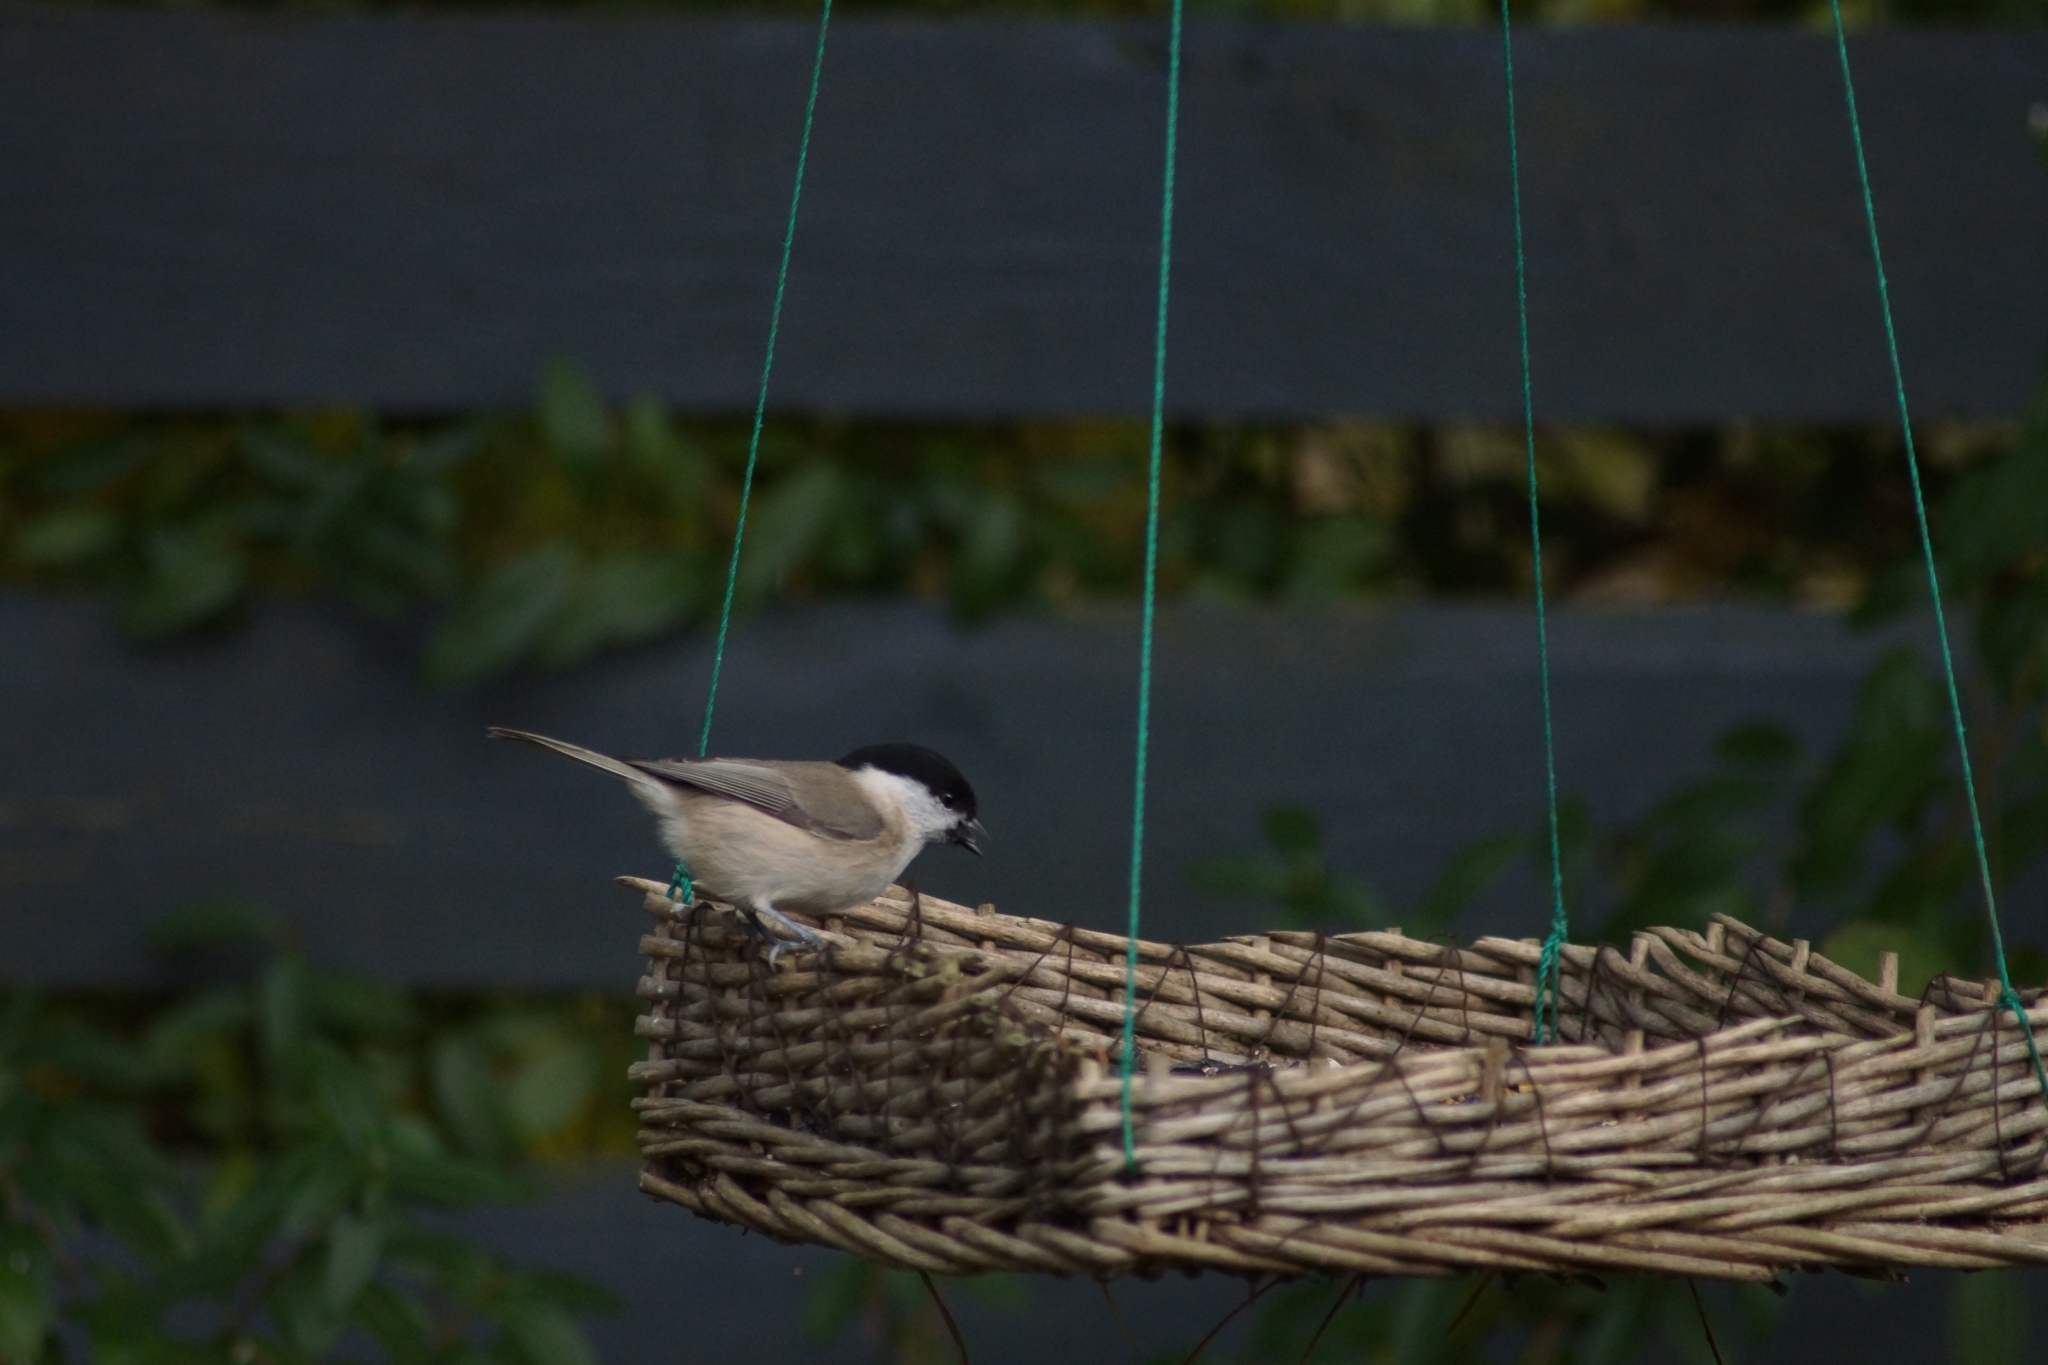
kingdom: Animalia
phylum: Chordata
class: Aves
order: Passeriformes
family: Paridae
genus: Poecile
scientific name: Poecile palustris
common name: Marsh tit
